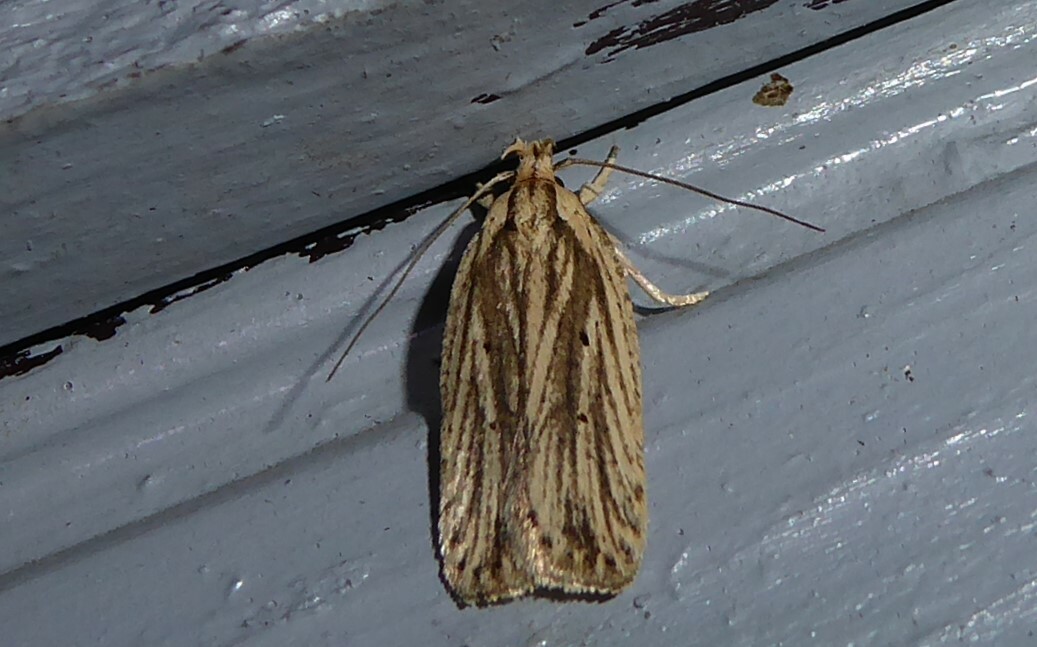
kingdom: Animalia
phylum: Arthropoda
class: Insecta
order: Lepidoptera
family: Depressariidae
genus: Agonopterix
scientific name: Agonopterix
